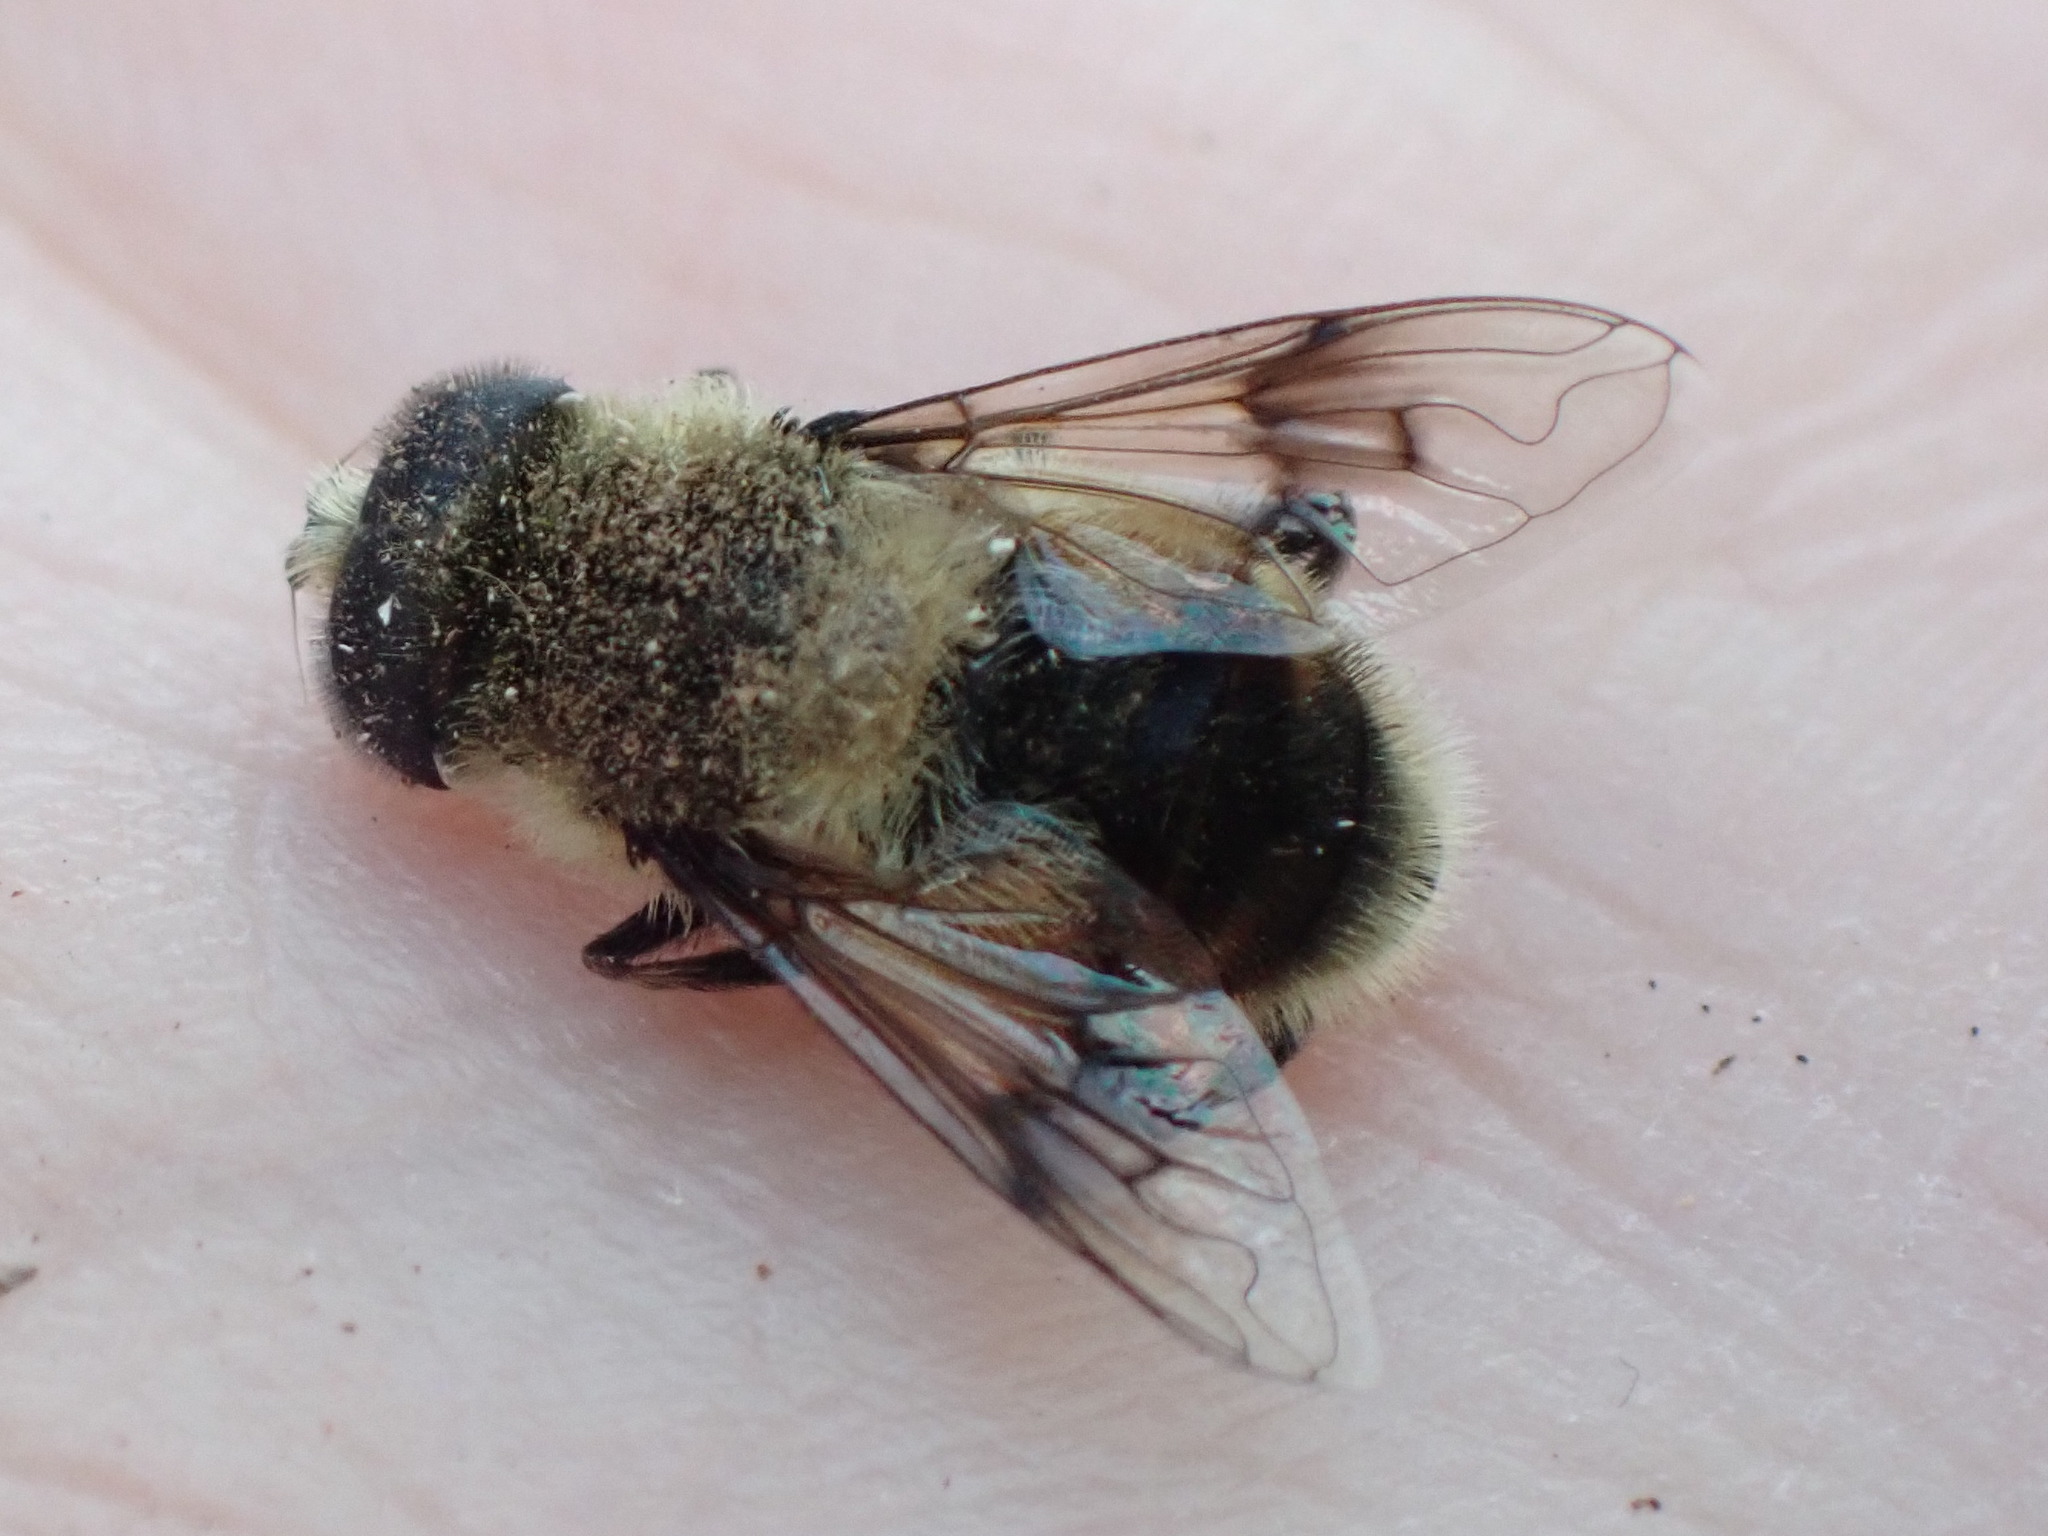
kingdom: Animalia
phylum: Arthropoda
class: Insecta
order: Diptera
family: Syrphidae
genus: Eristalis
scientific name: Eristalis anthophorina
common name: Orange-spotted drone fly
